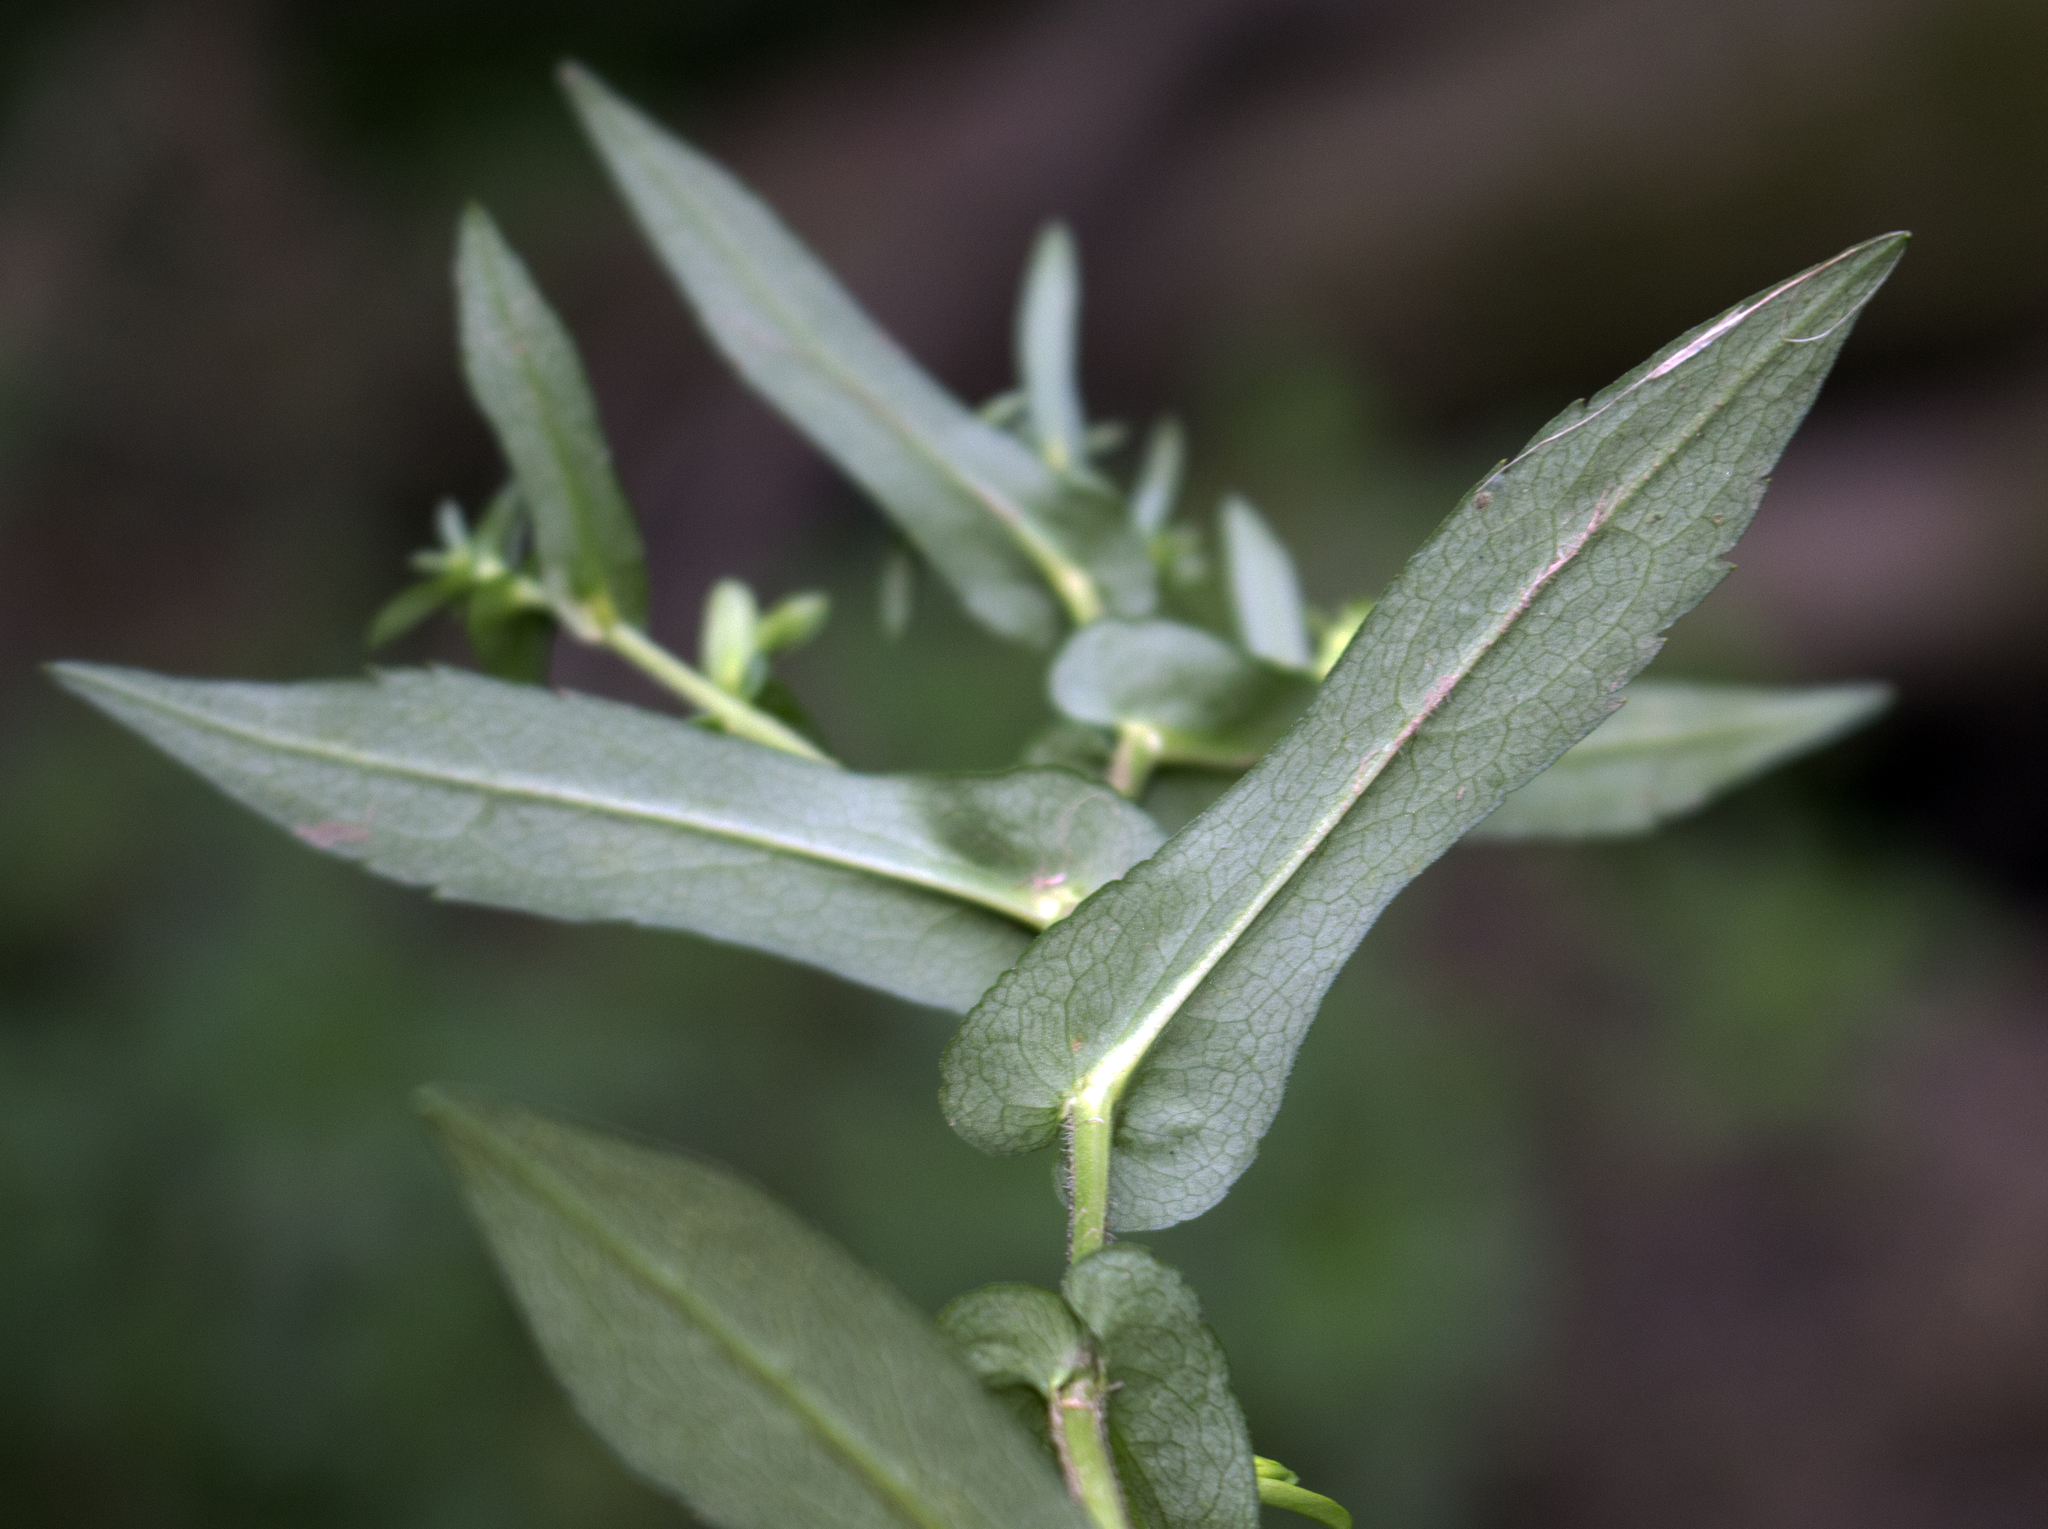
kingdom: Plantae
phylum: Tracheophyta
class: Magnoliopsida
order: Asterales
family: Asteraceae
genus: Symphyotrichum
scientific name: Symphyotrichum prenanthoides
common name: Crooked-stem aster
